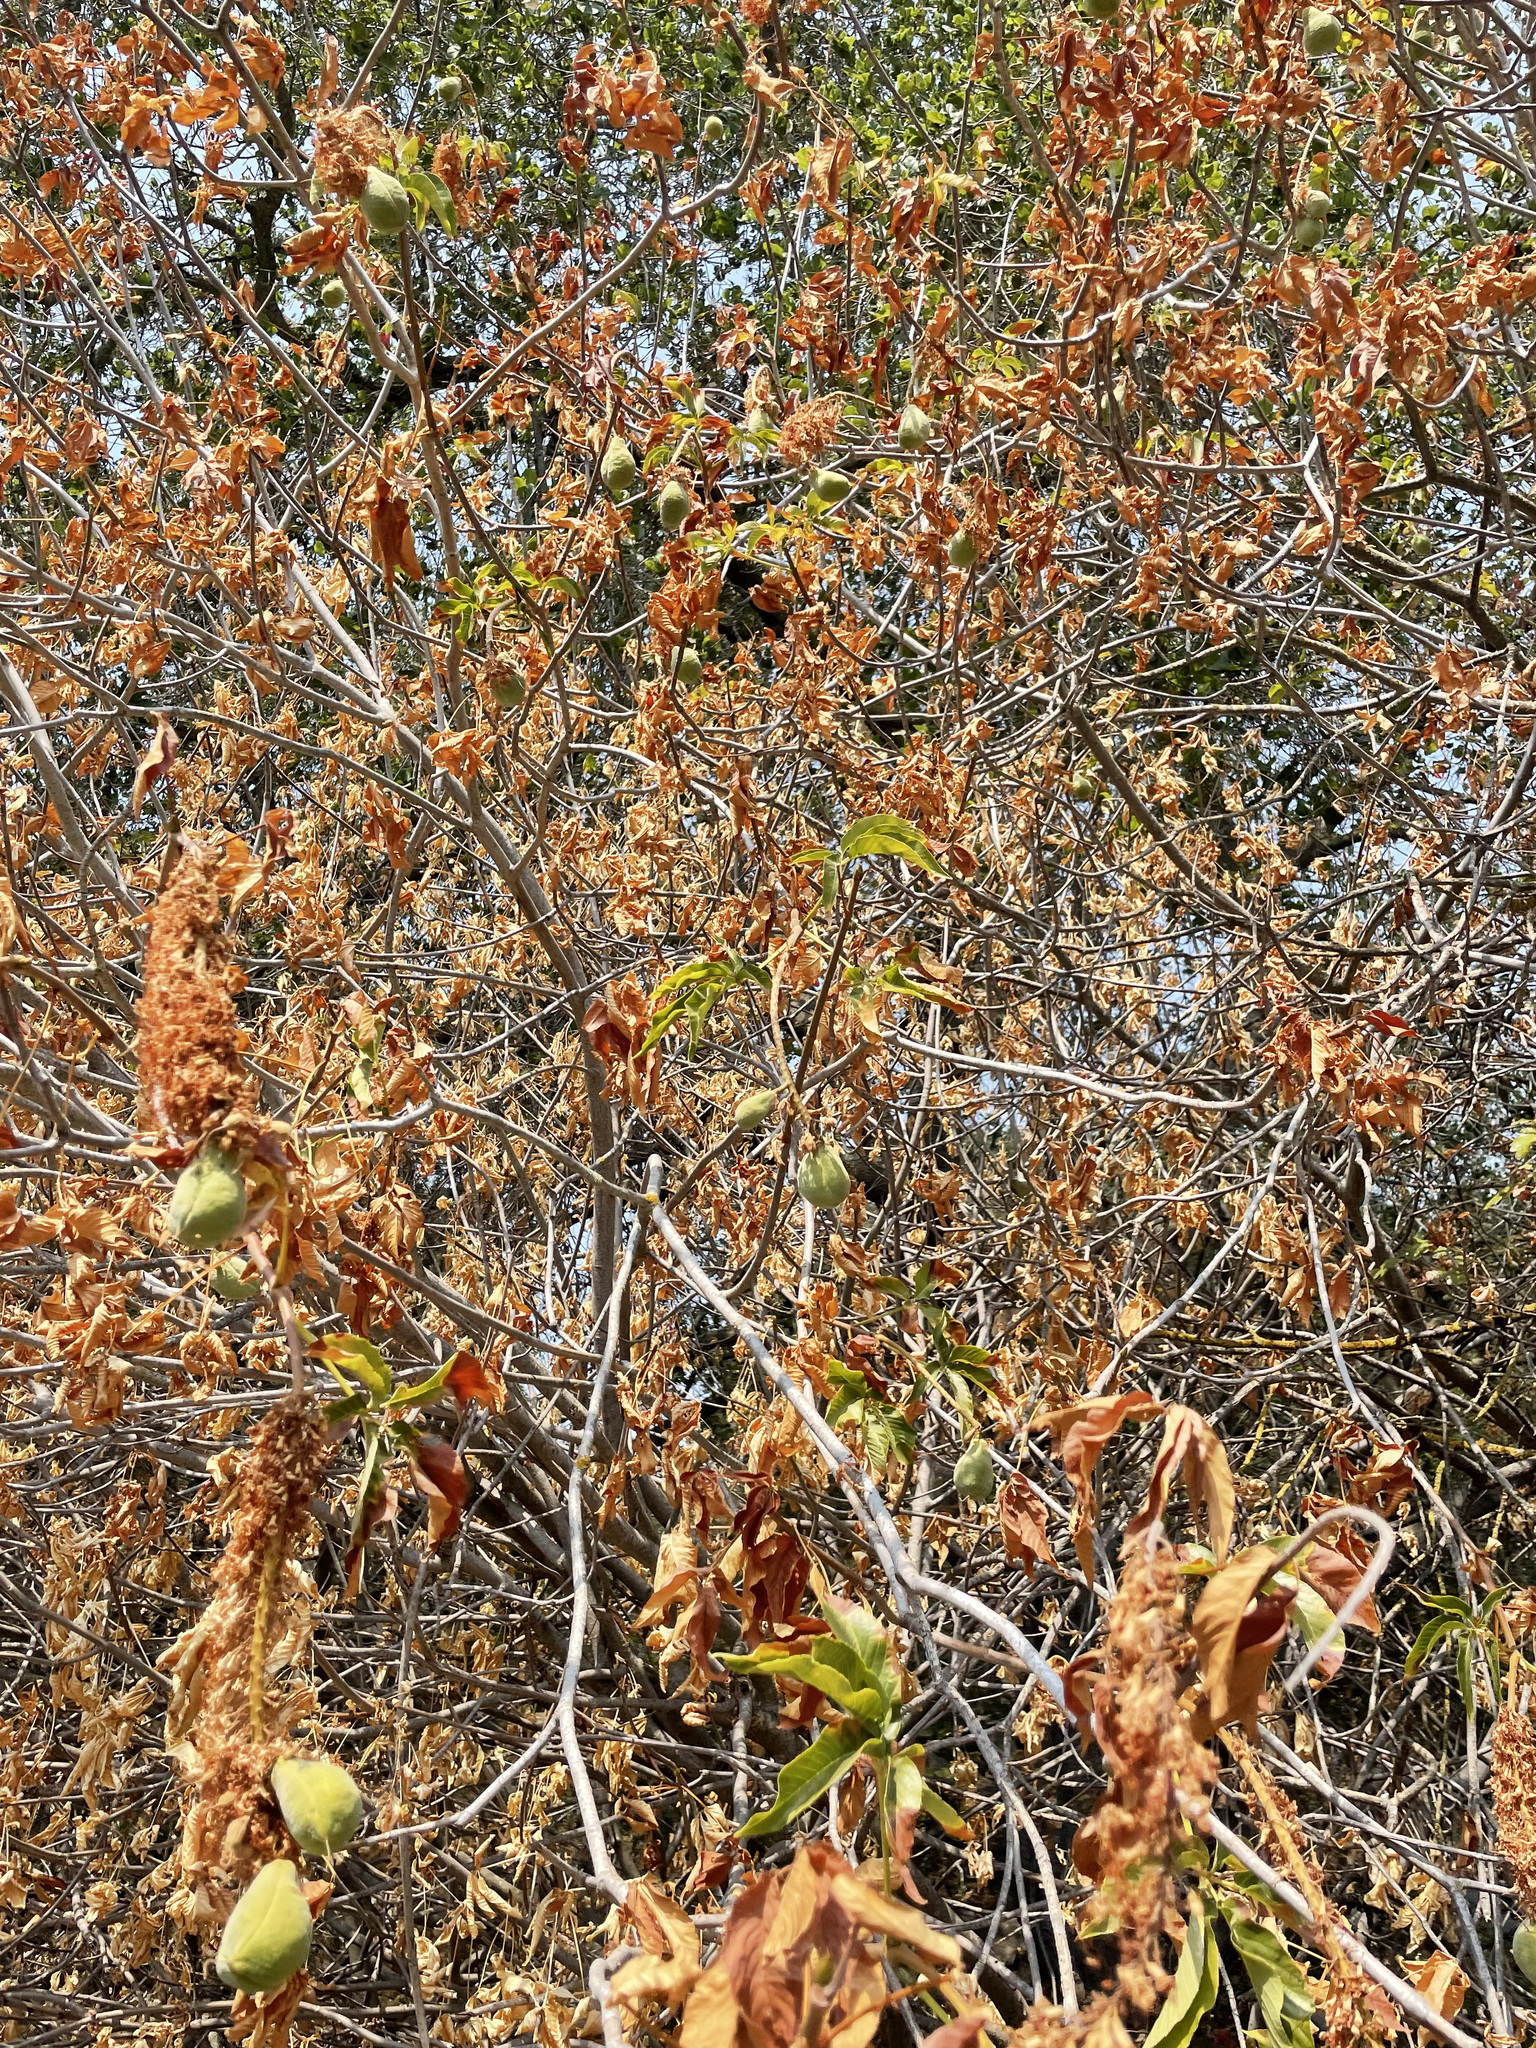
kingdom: Plantae
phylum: Tracheophyta
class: Magnoliopsida
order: Sapindales
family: Sapindaceae
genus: Aesculus
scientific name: Aesculus californica
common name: California buckeye
